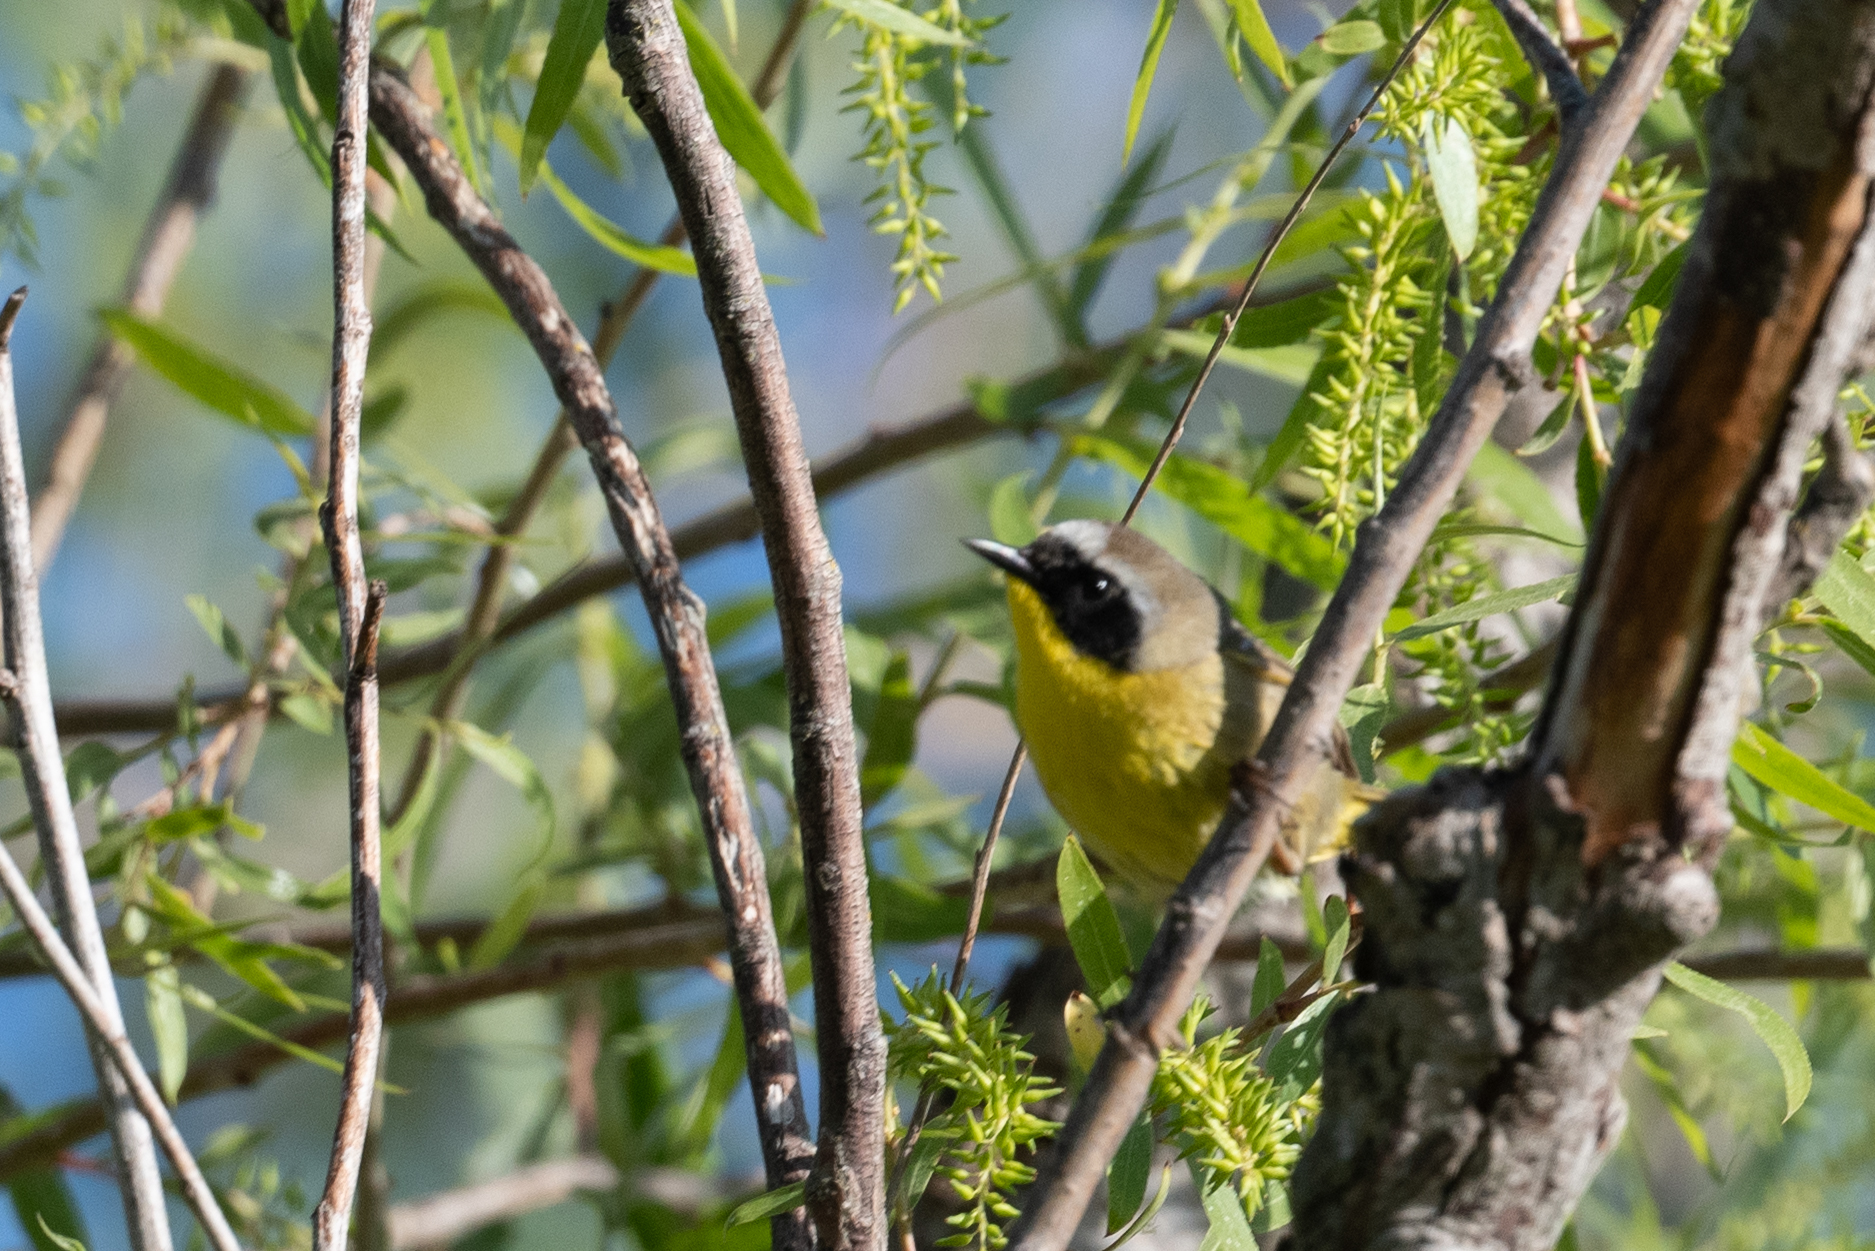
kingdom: Animalia
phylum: Chordata
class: Aves
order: Passeriformes
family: Parulidae
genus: Geothlypis
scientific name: Geothlypis trichas
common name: Common yellowthroat
